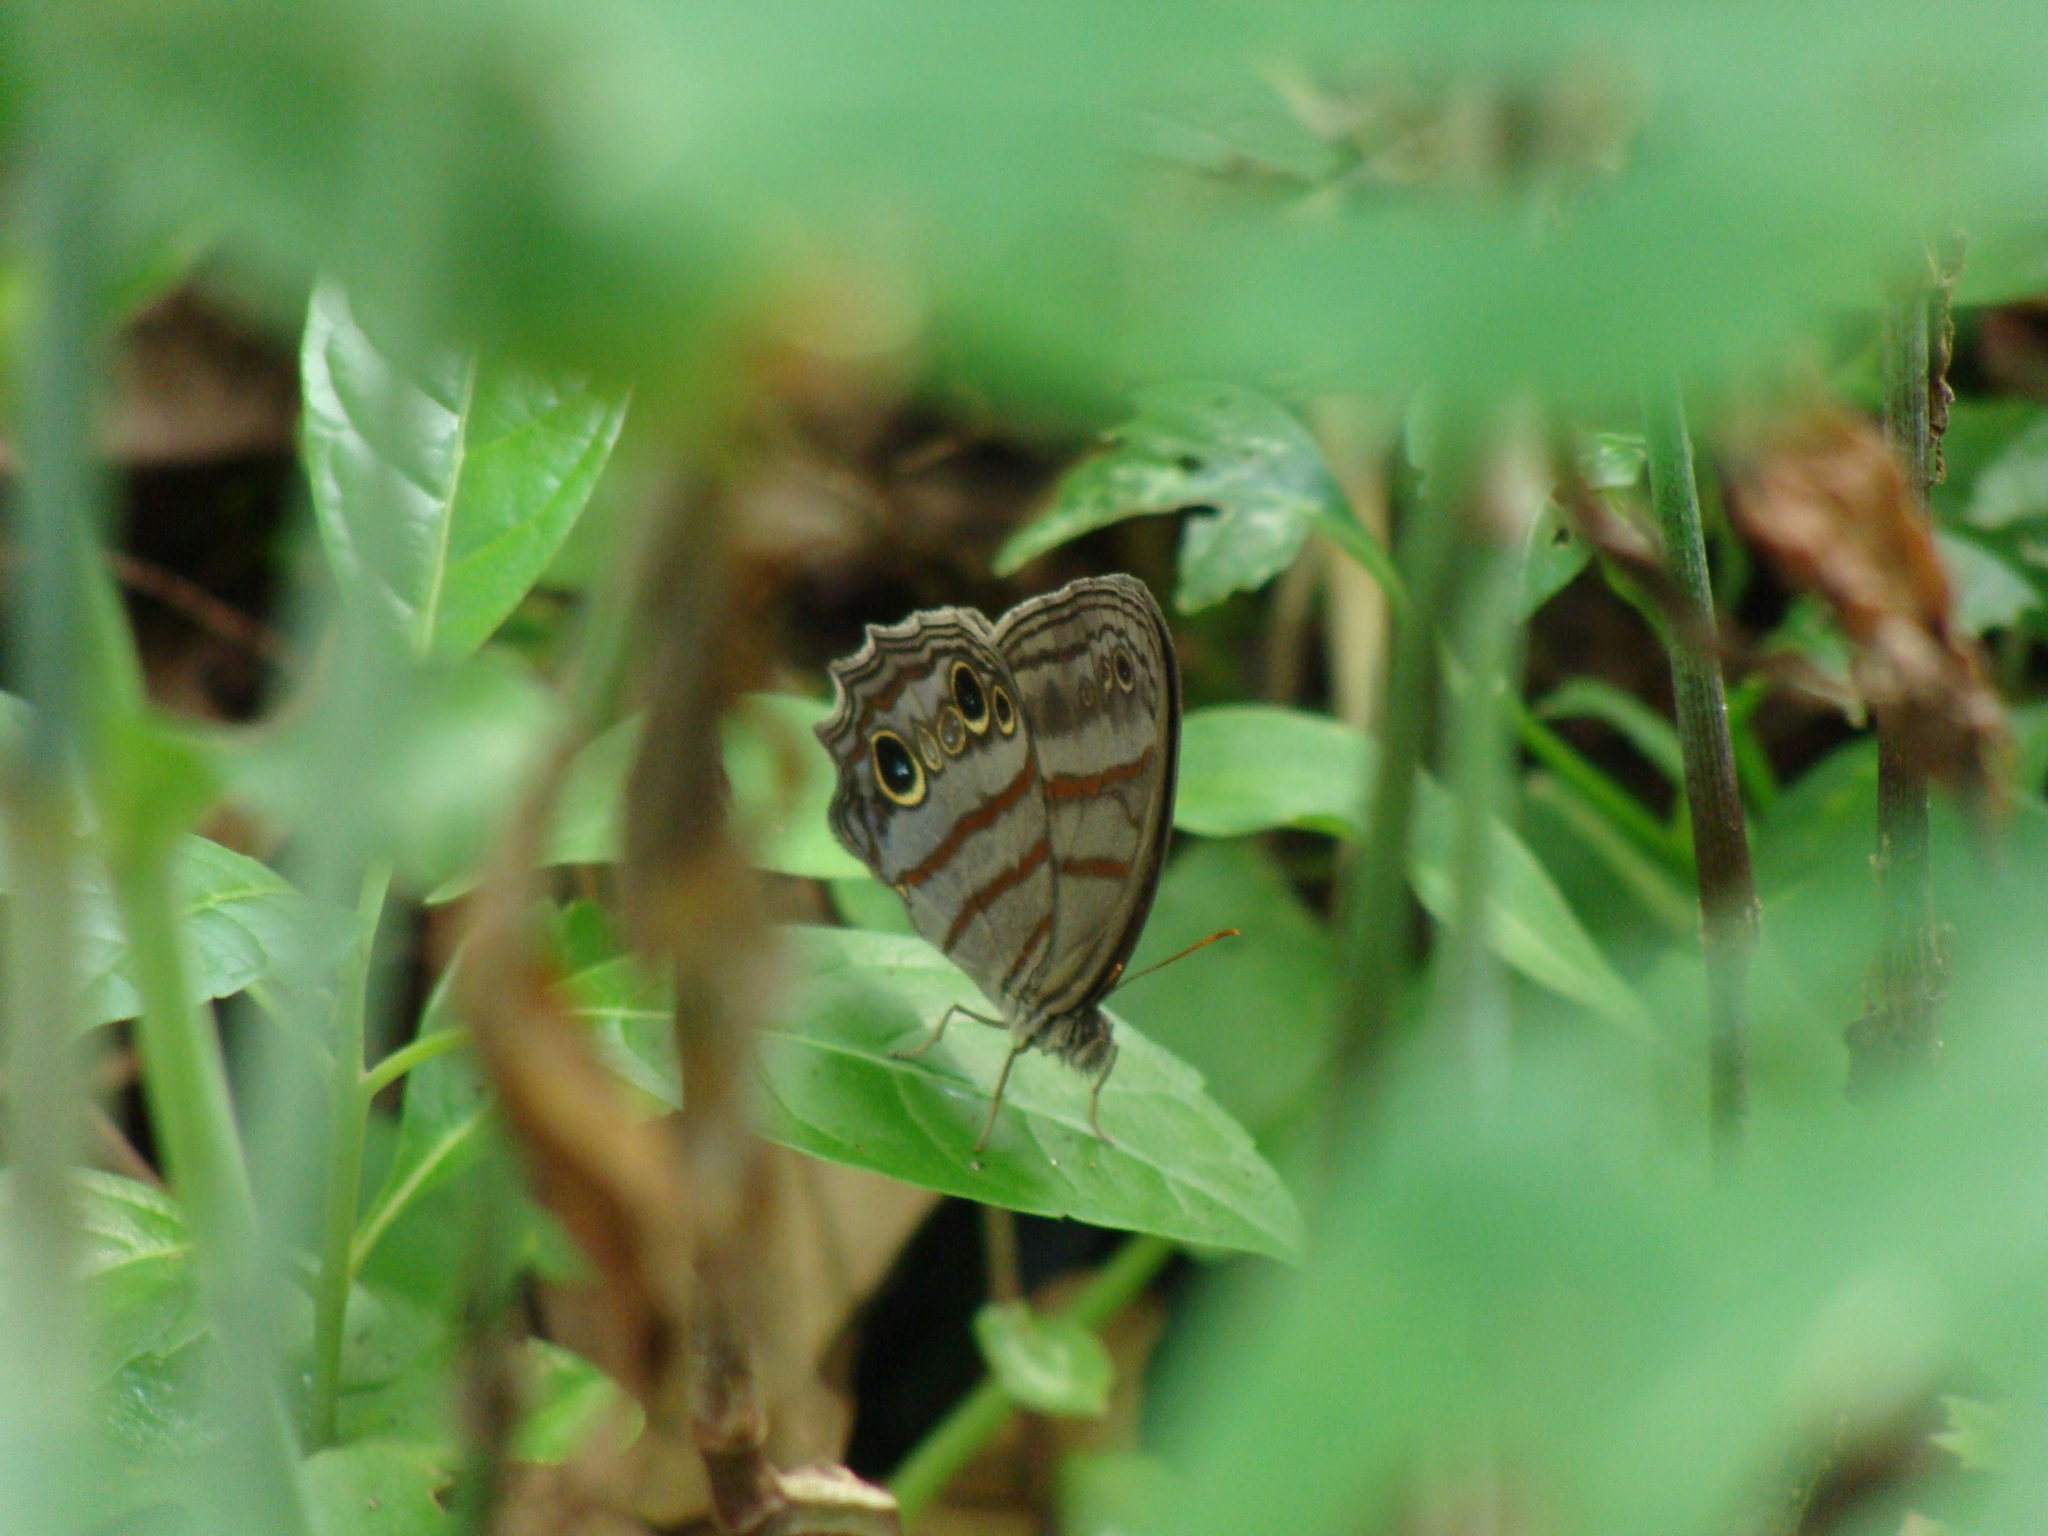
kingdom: Animalia
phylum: Arthropoda
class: Insecta
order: Lepidoptera
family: Nymphalidae
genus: Magneuptychia
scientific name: Magneuptychia libye
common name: Blue-gray satyr
